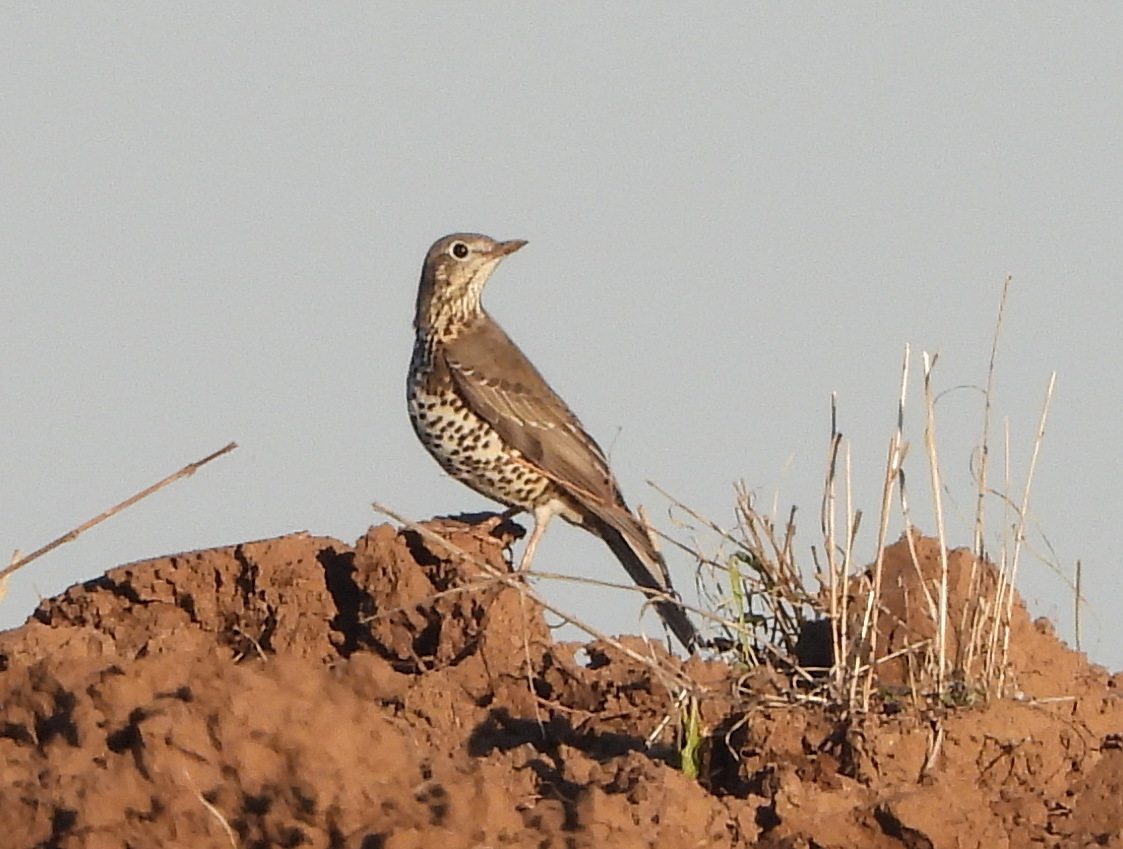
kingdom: Animalia
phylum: Chordata
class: Aves
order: Passeriformes
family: Turdidae
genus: Turdus
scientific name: Turdus viscivorus
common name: Mistle thrush
